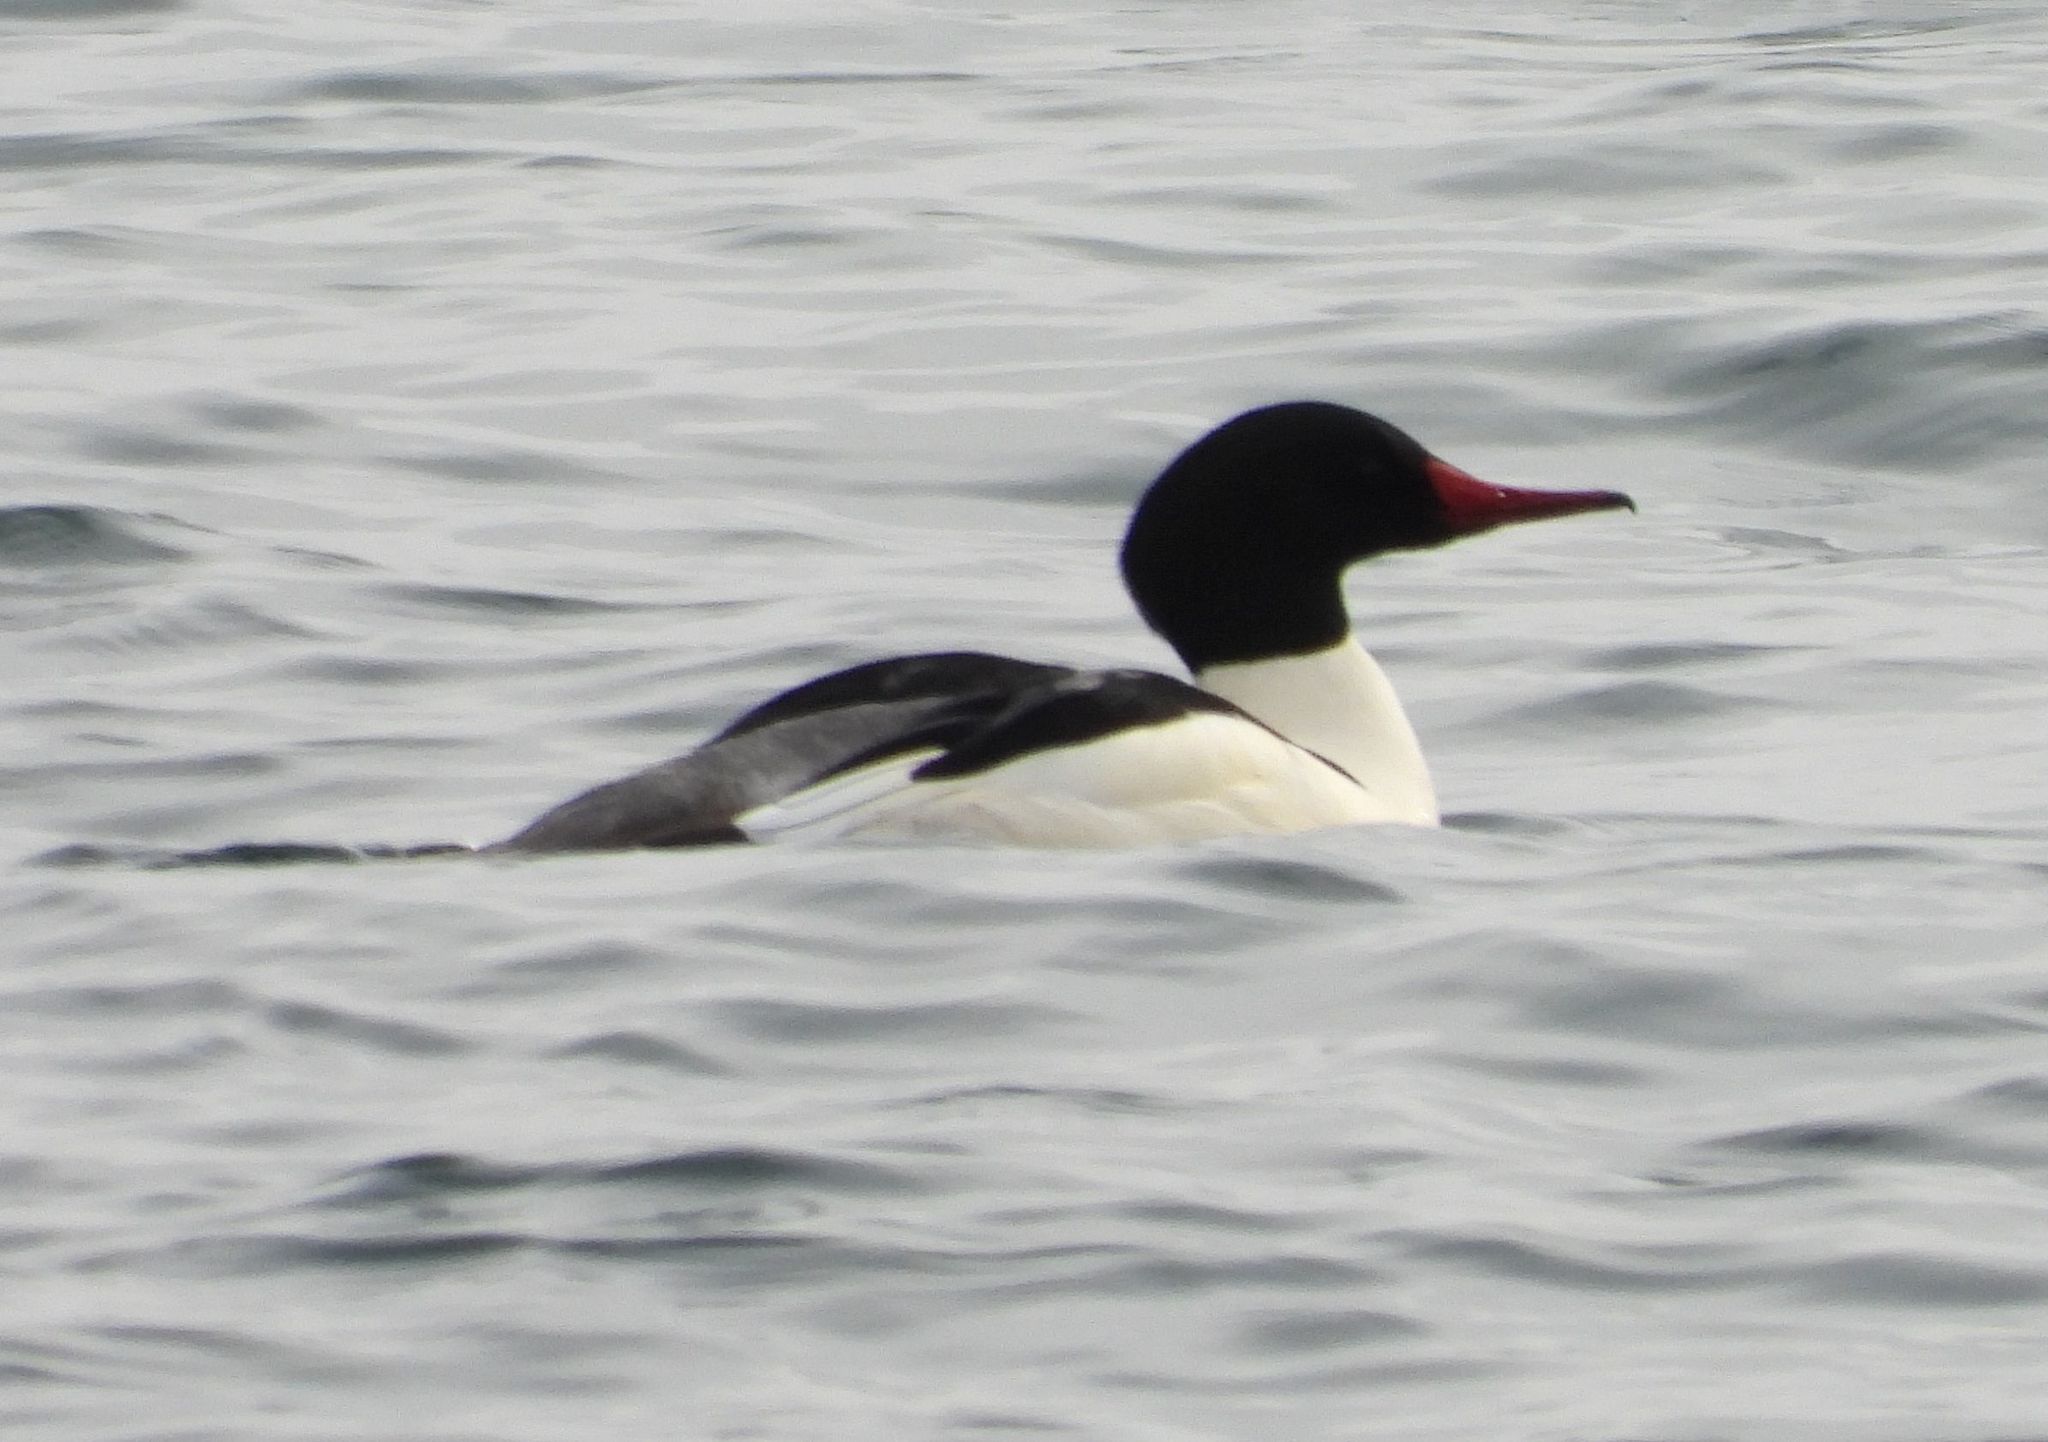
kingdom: Animalia
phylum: Chordata
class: Aves
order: Anseriformes
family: Anatidae
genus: Mergus
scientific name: Mergus merganser
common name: Common merganser
